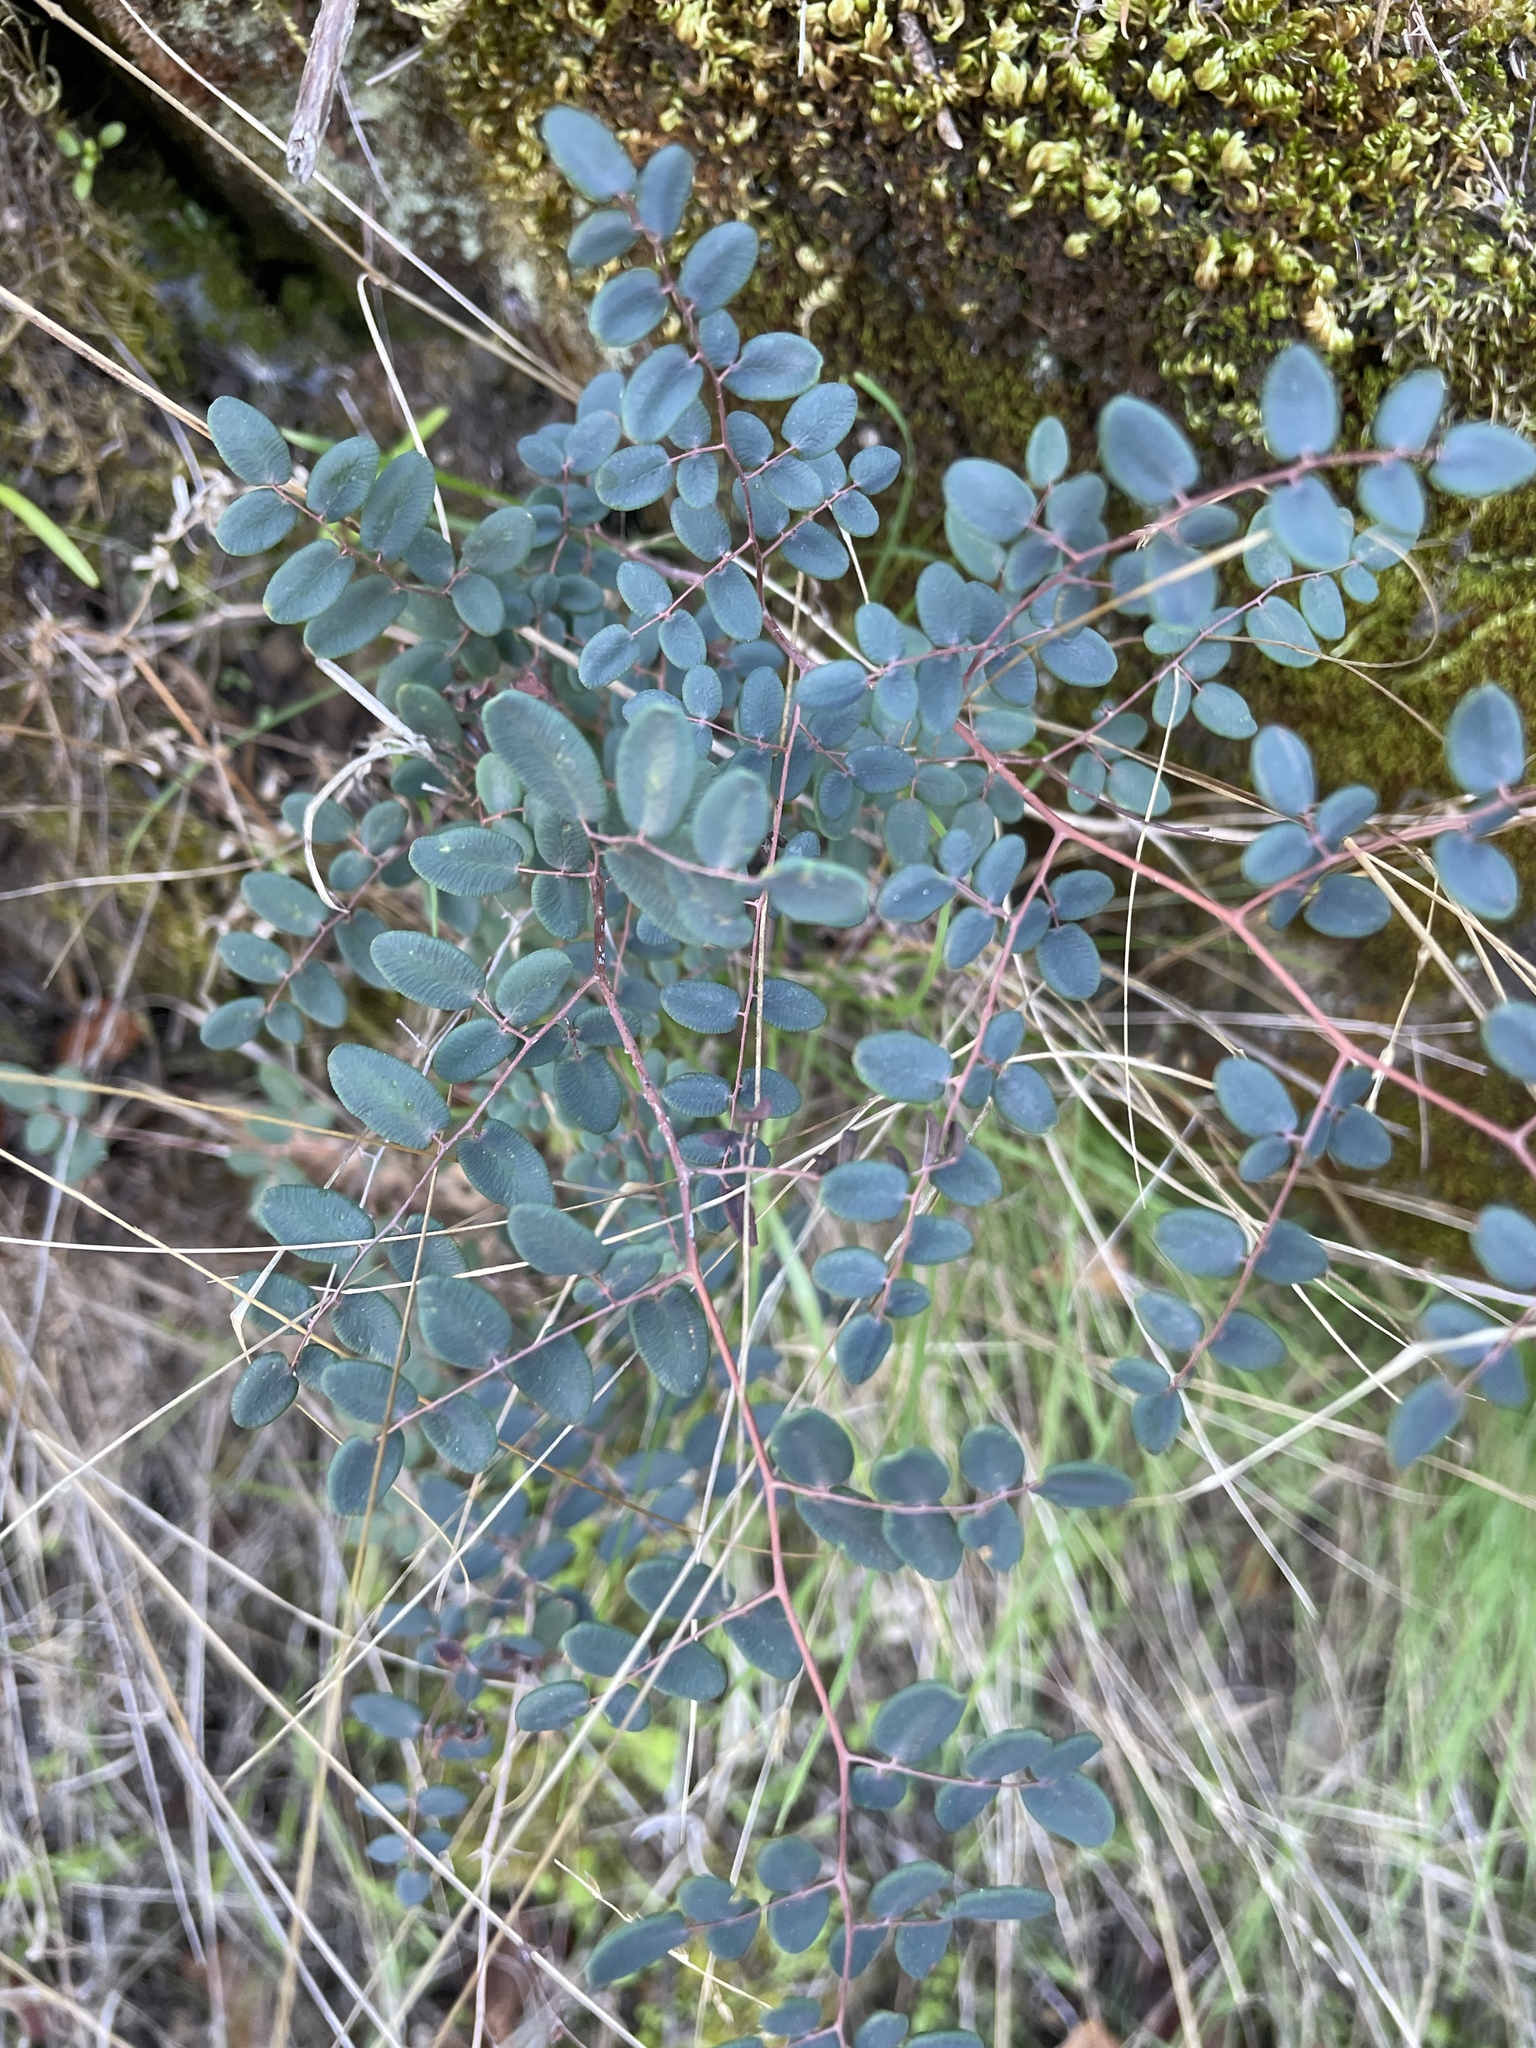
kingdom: Plantae
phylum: Tracheophyta
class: Polypodiopsida
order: Polypodiales
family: Pteridaceae
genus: Pellaea
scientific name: Pellaea andromedifolia
